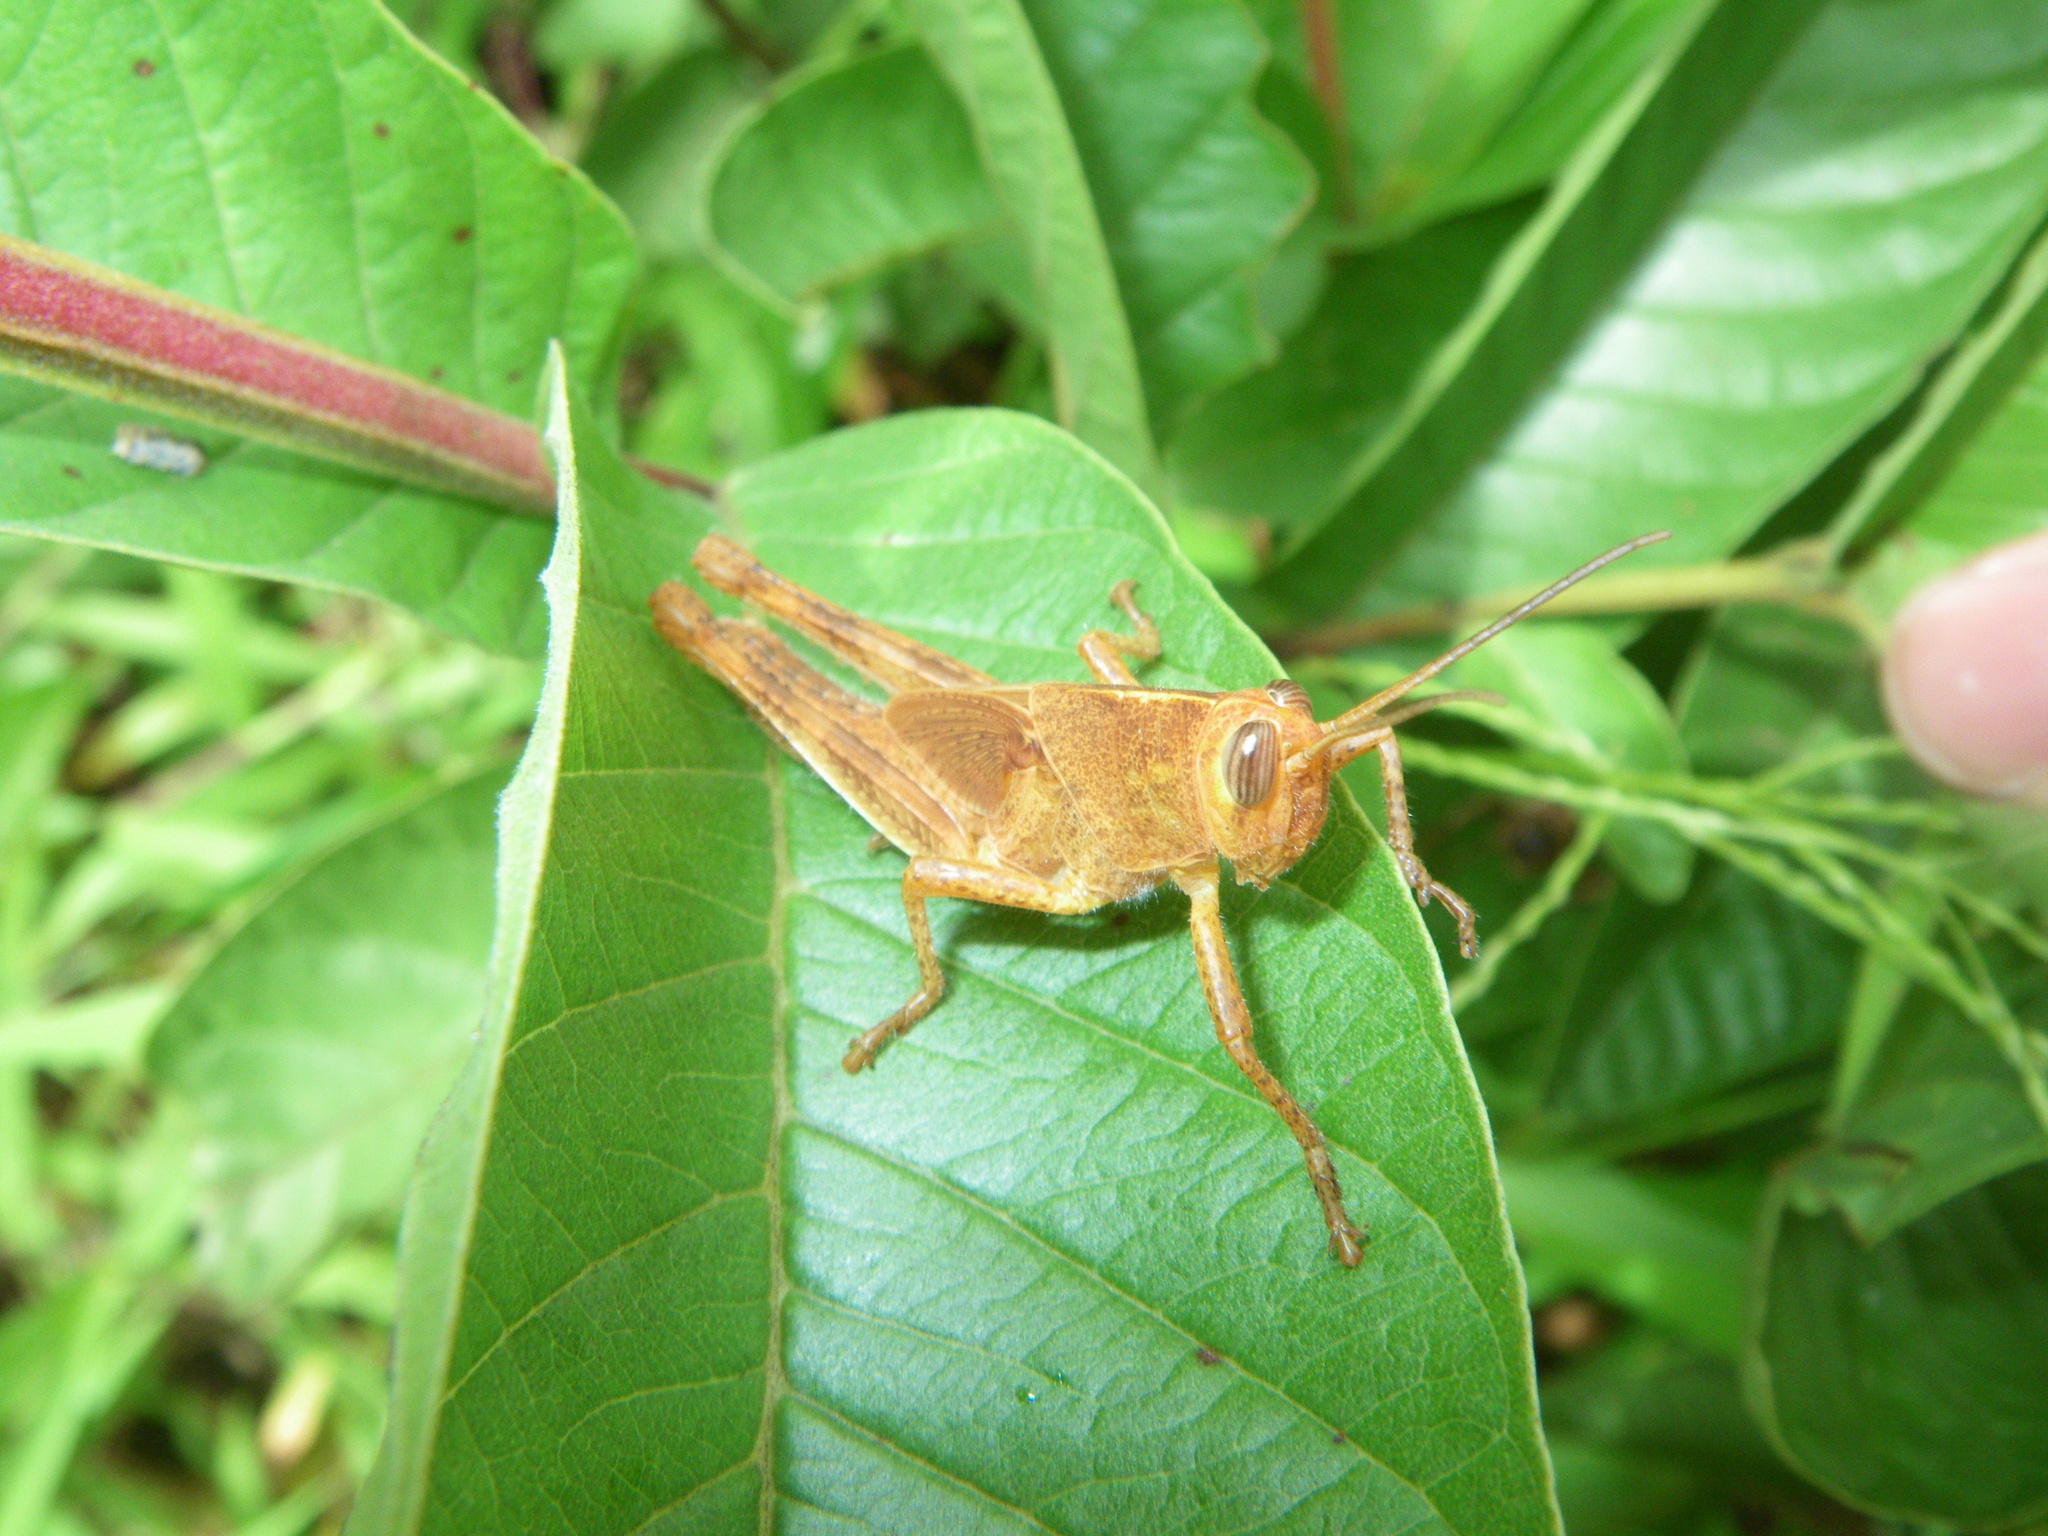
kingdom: Animalia
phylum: Arthropoda
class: Insecta
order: Orthoptera
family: Acrididae
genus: Schistocerca
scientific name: Schistocerca
